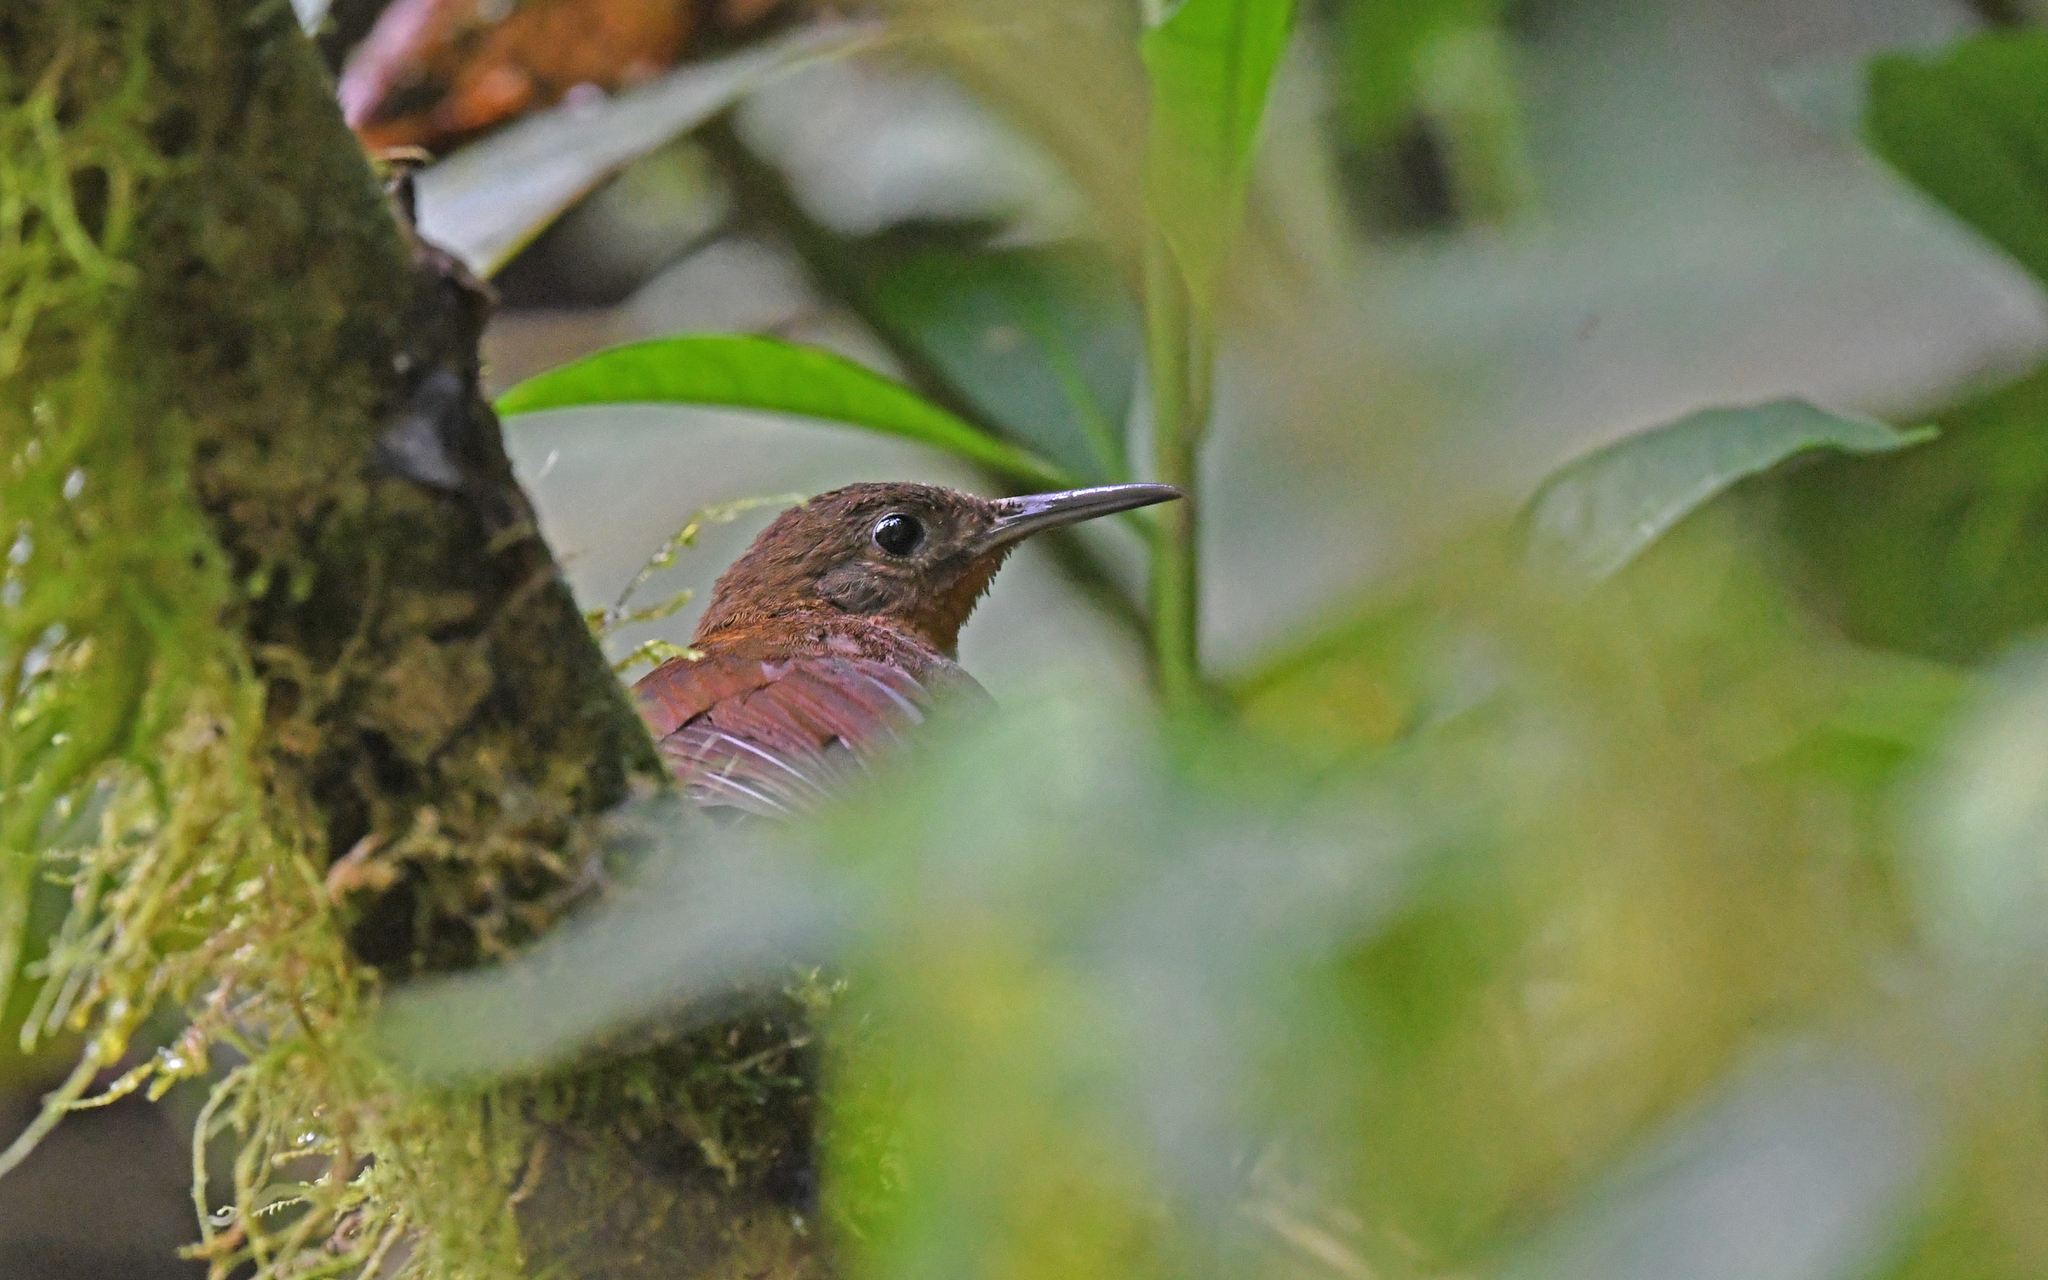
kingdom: Animalia
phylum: Chordata
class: Aves
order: Passeriformes
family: Furnariidae
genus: Sclerurus
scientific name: Sclerurus obscurior
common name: Dusky leaftosser
